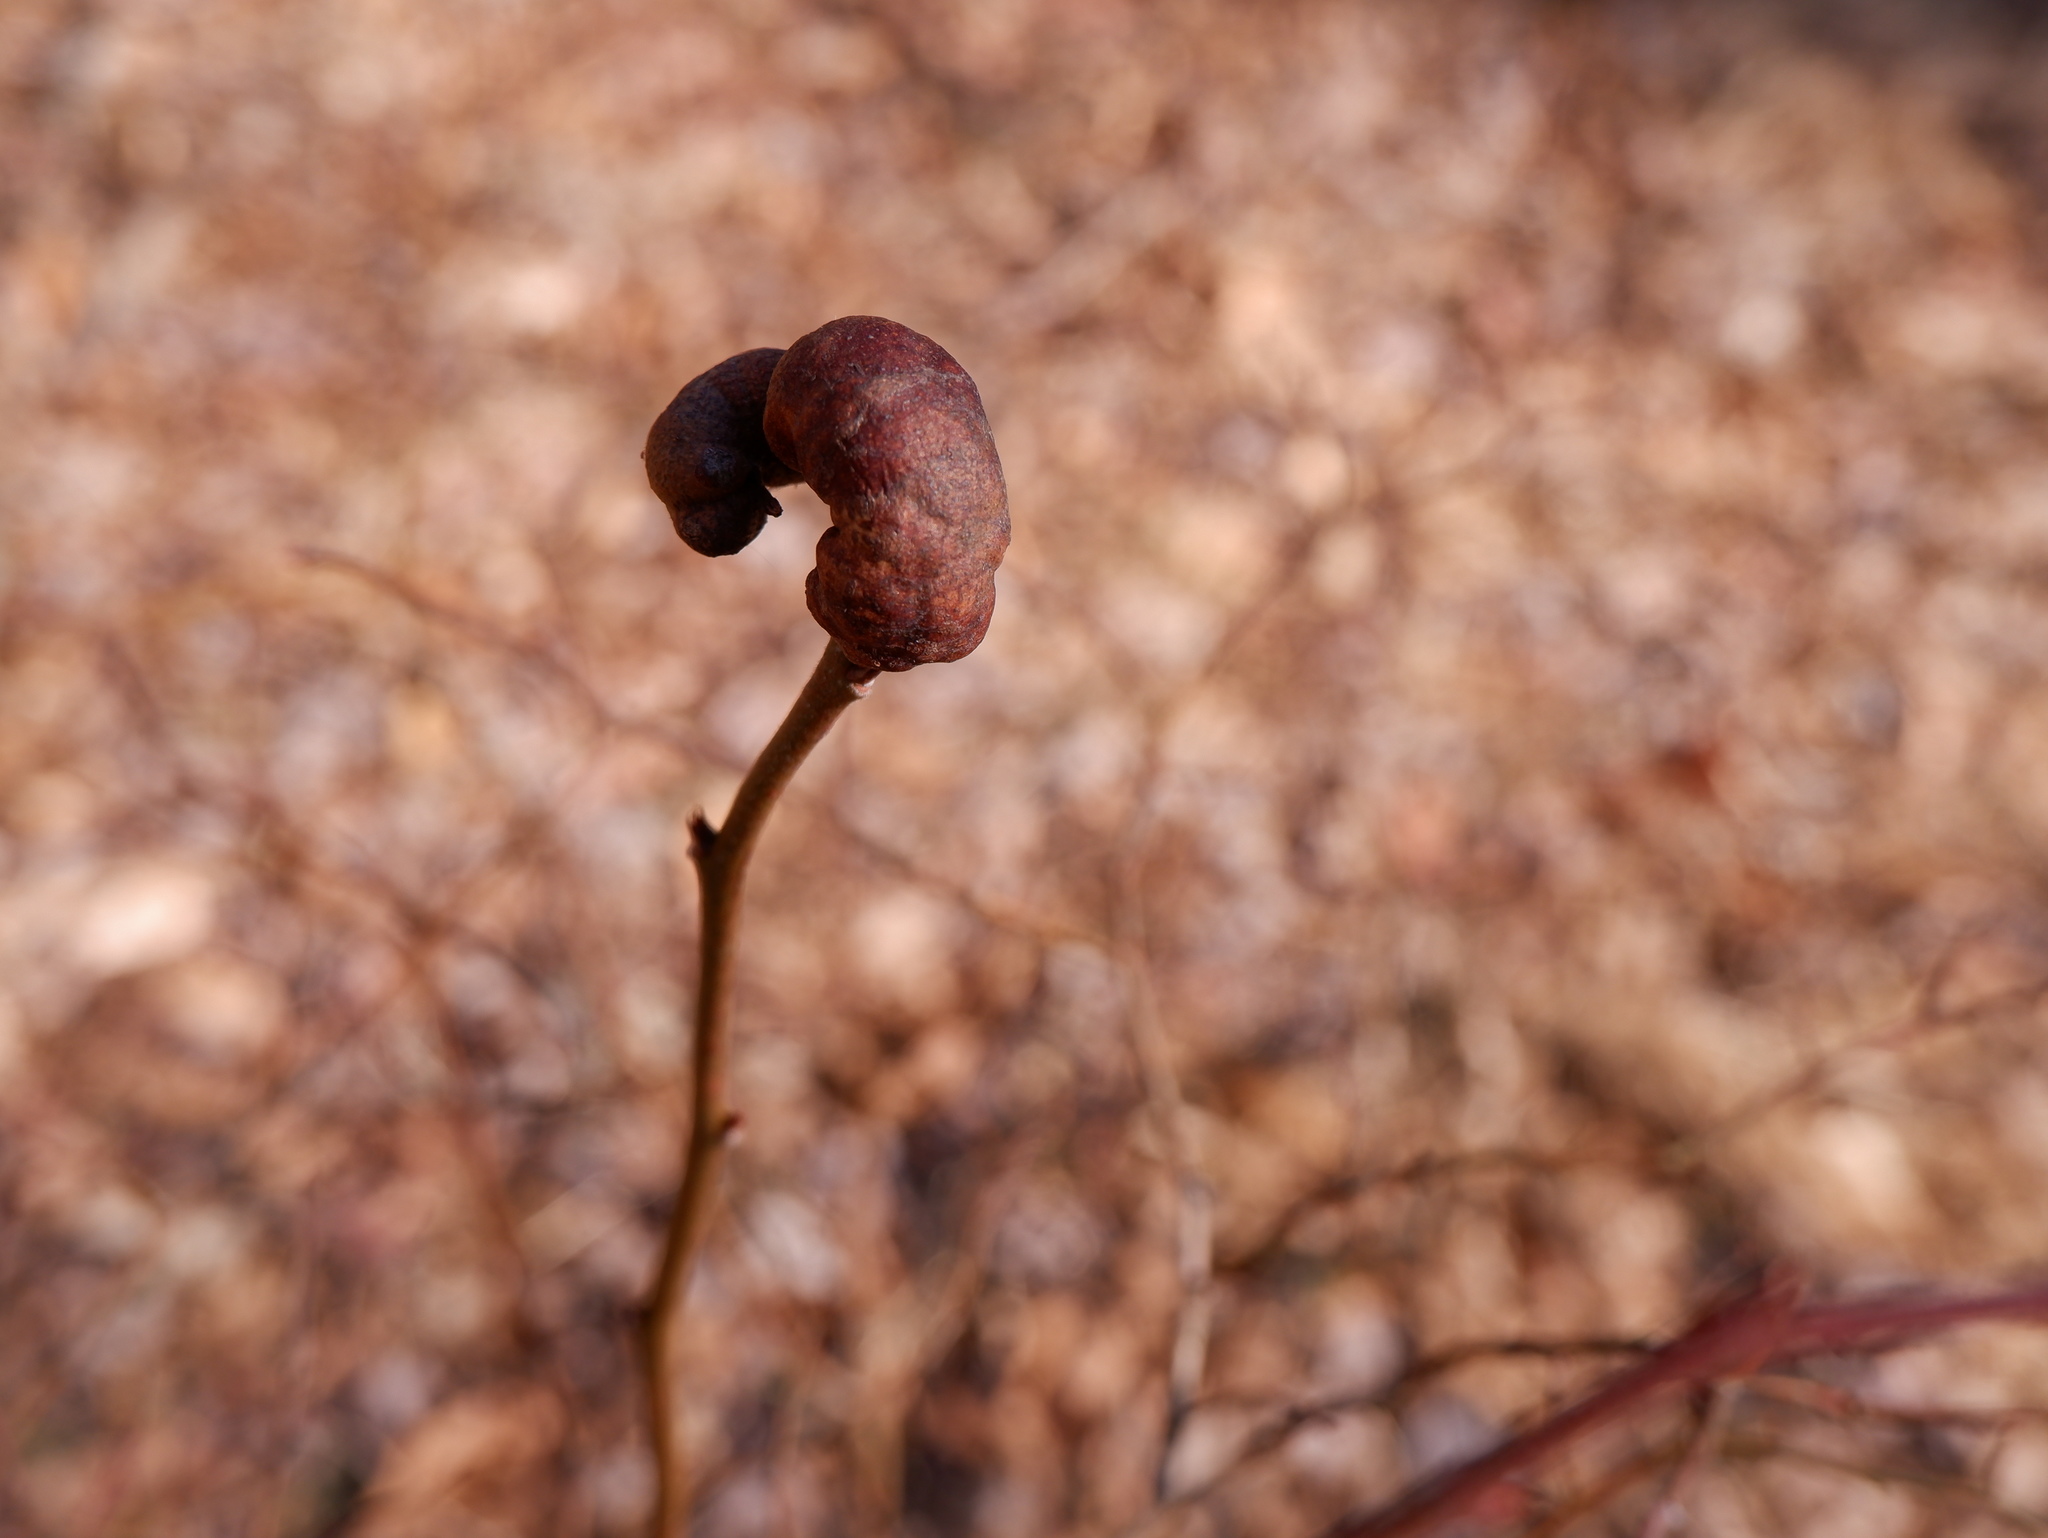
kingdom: Animalia
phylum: Arthropoda
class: Insecta
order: Hymenoptera
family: Pteromalidae
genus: Hemadas
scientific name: Hemadas nubilipennis
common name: Blueberry stem gall wasp
